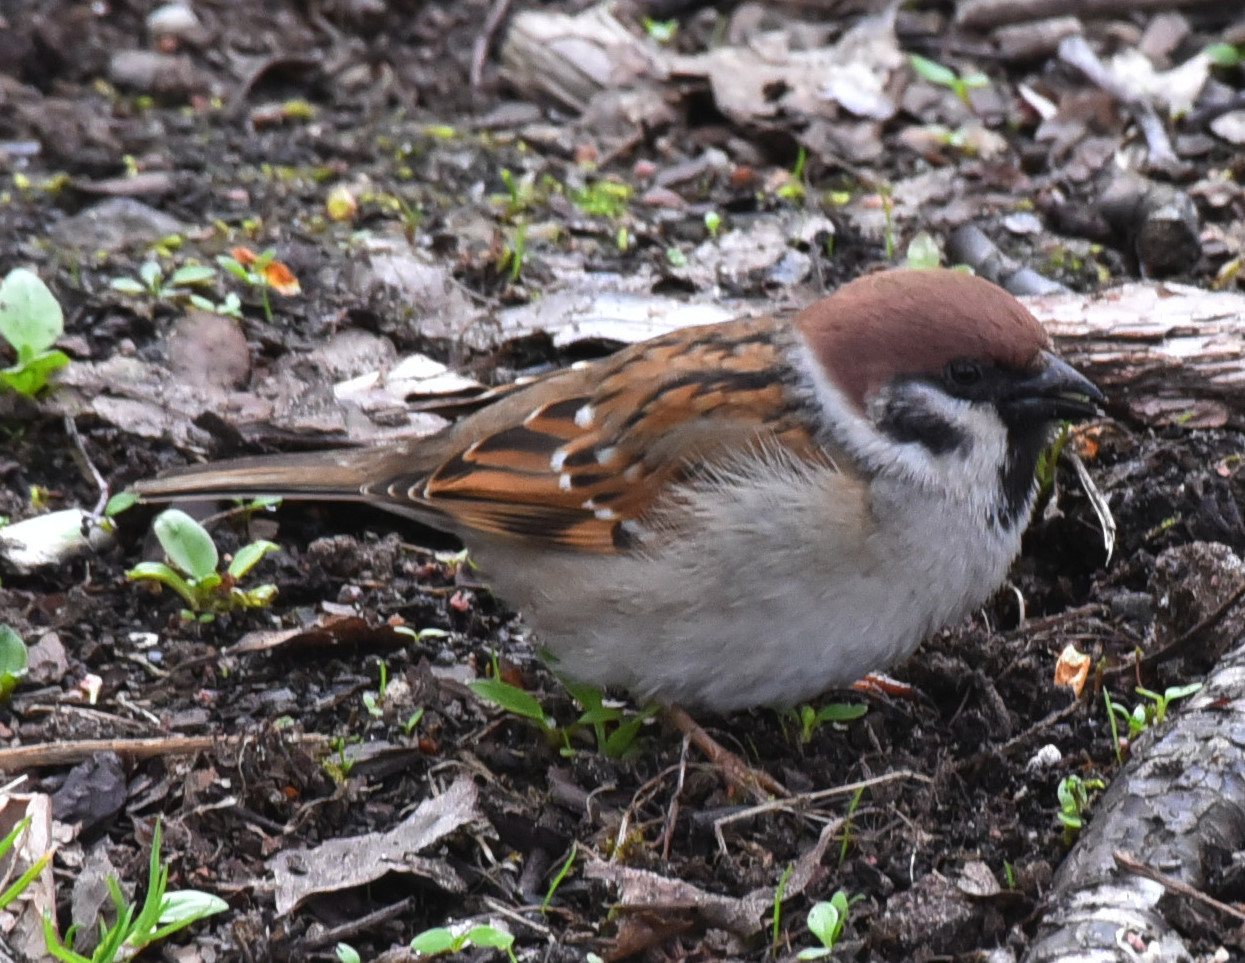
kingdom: Animalia
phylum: Chordata
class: Aves
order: Passeriformes
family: Passeridae
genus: Passer
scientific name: Passer montanus
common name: Eurasian tree sparrow
